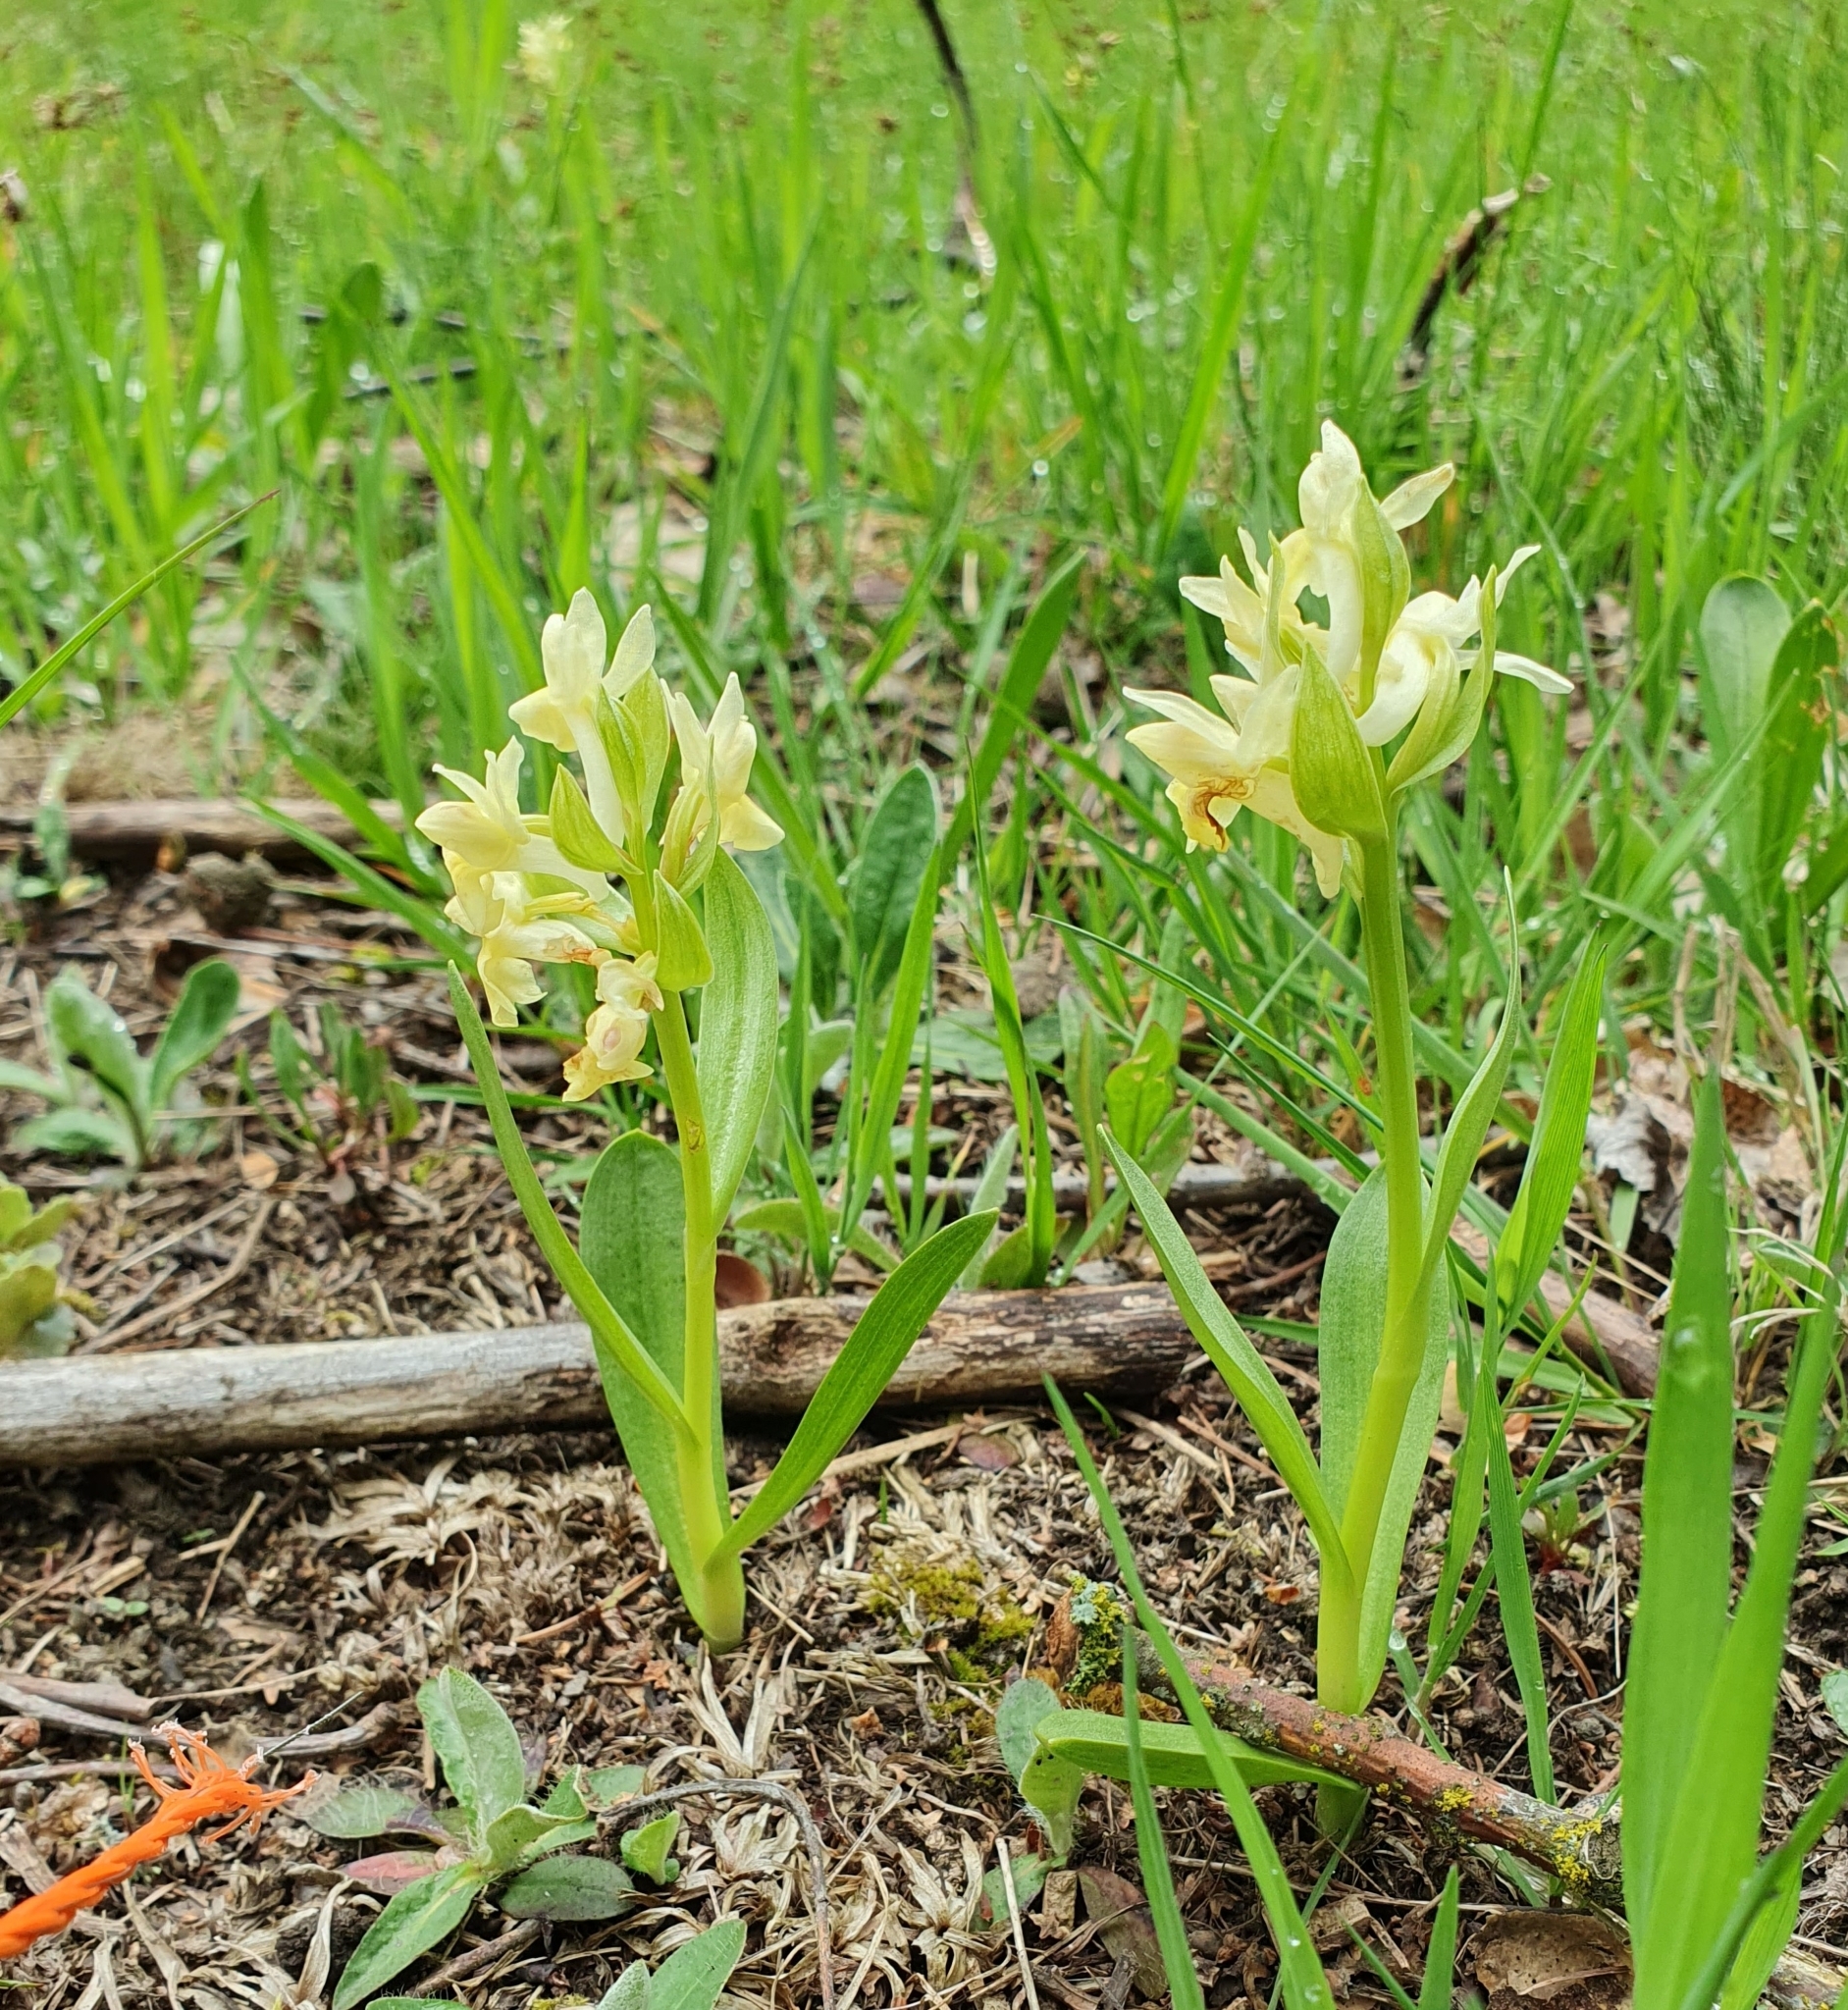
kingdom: Plantae
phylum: Tracheophyta
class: Liliopsida
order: Asparagales
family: Orchidaceae
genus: Dactylorhiza
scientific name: Dactylorhiza sambucina
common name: Elder-flowered orchid
